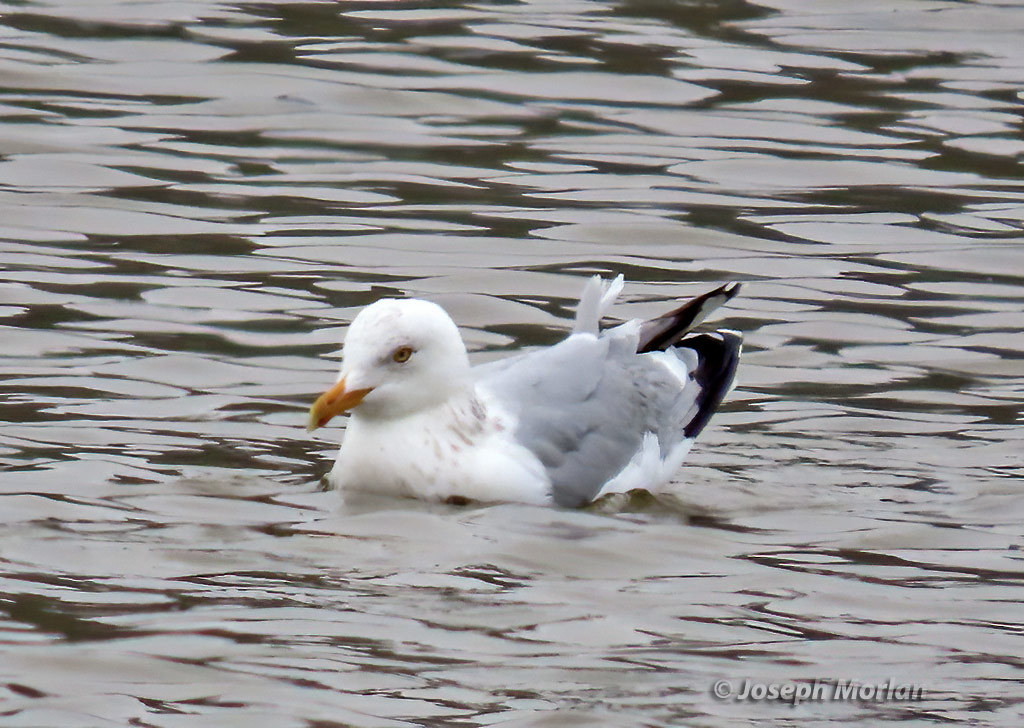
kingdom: Animalia
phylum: Chordata
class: Aves
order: Charadriiformes
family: Laridae
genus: Larus
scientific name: Larus argentatus
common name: Herring gull
